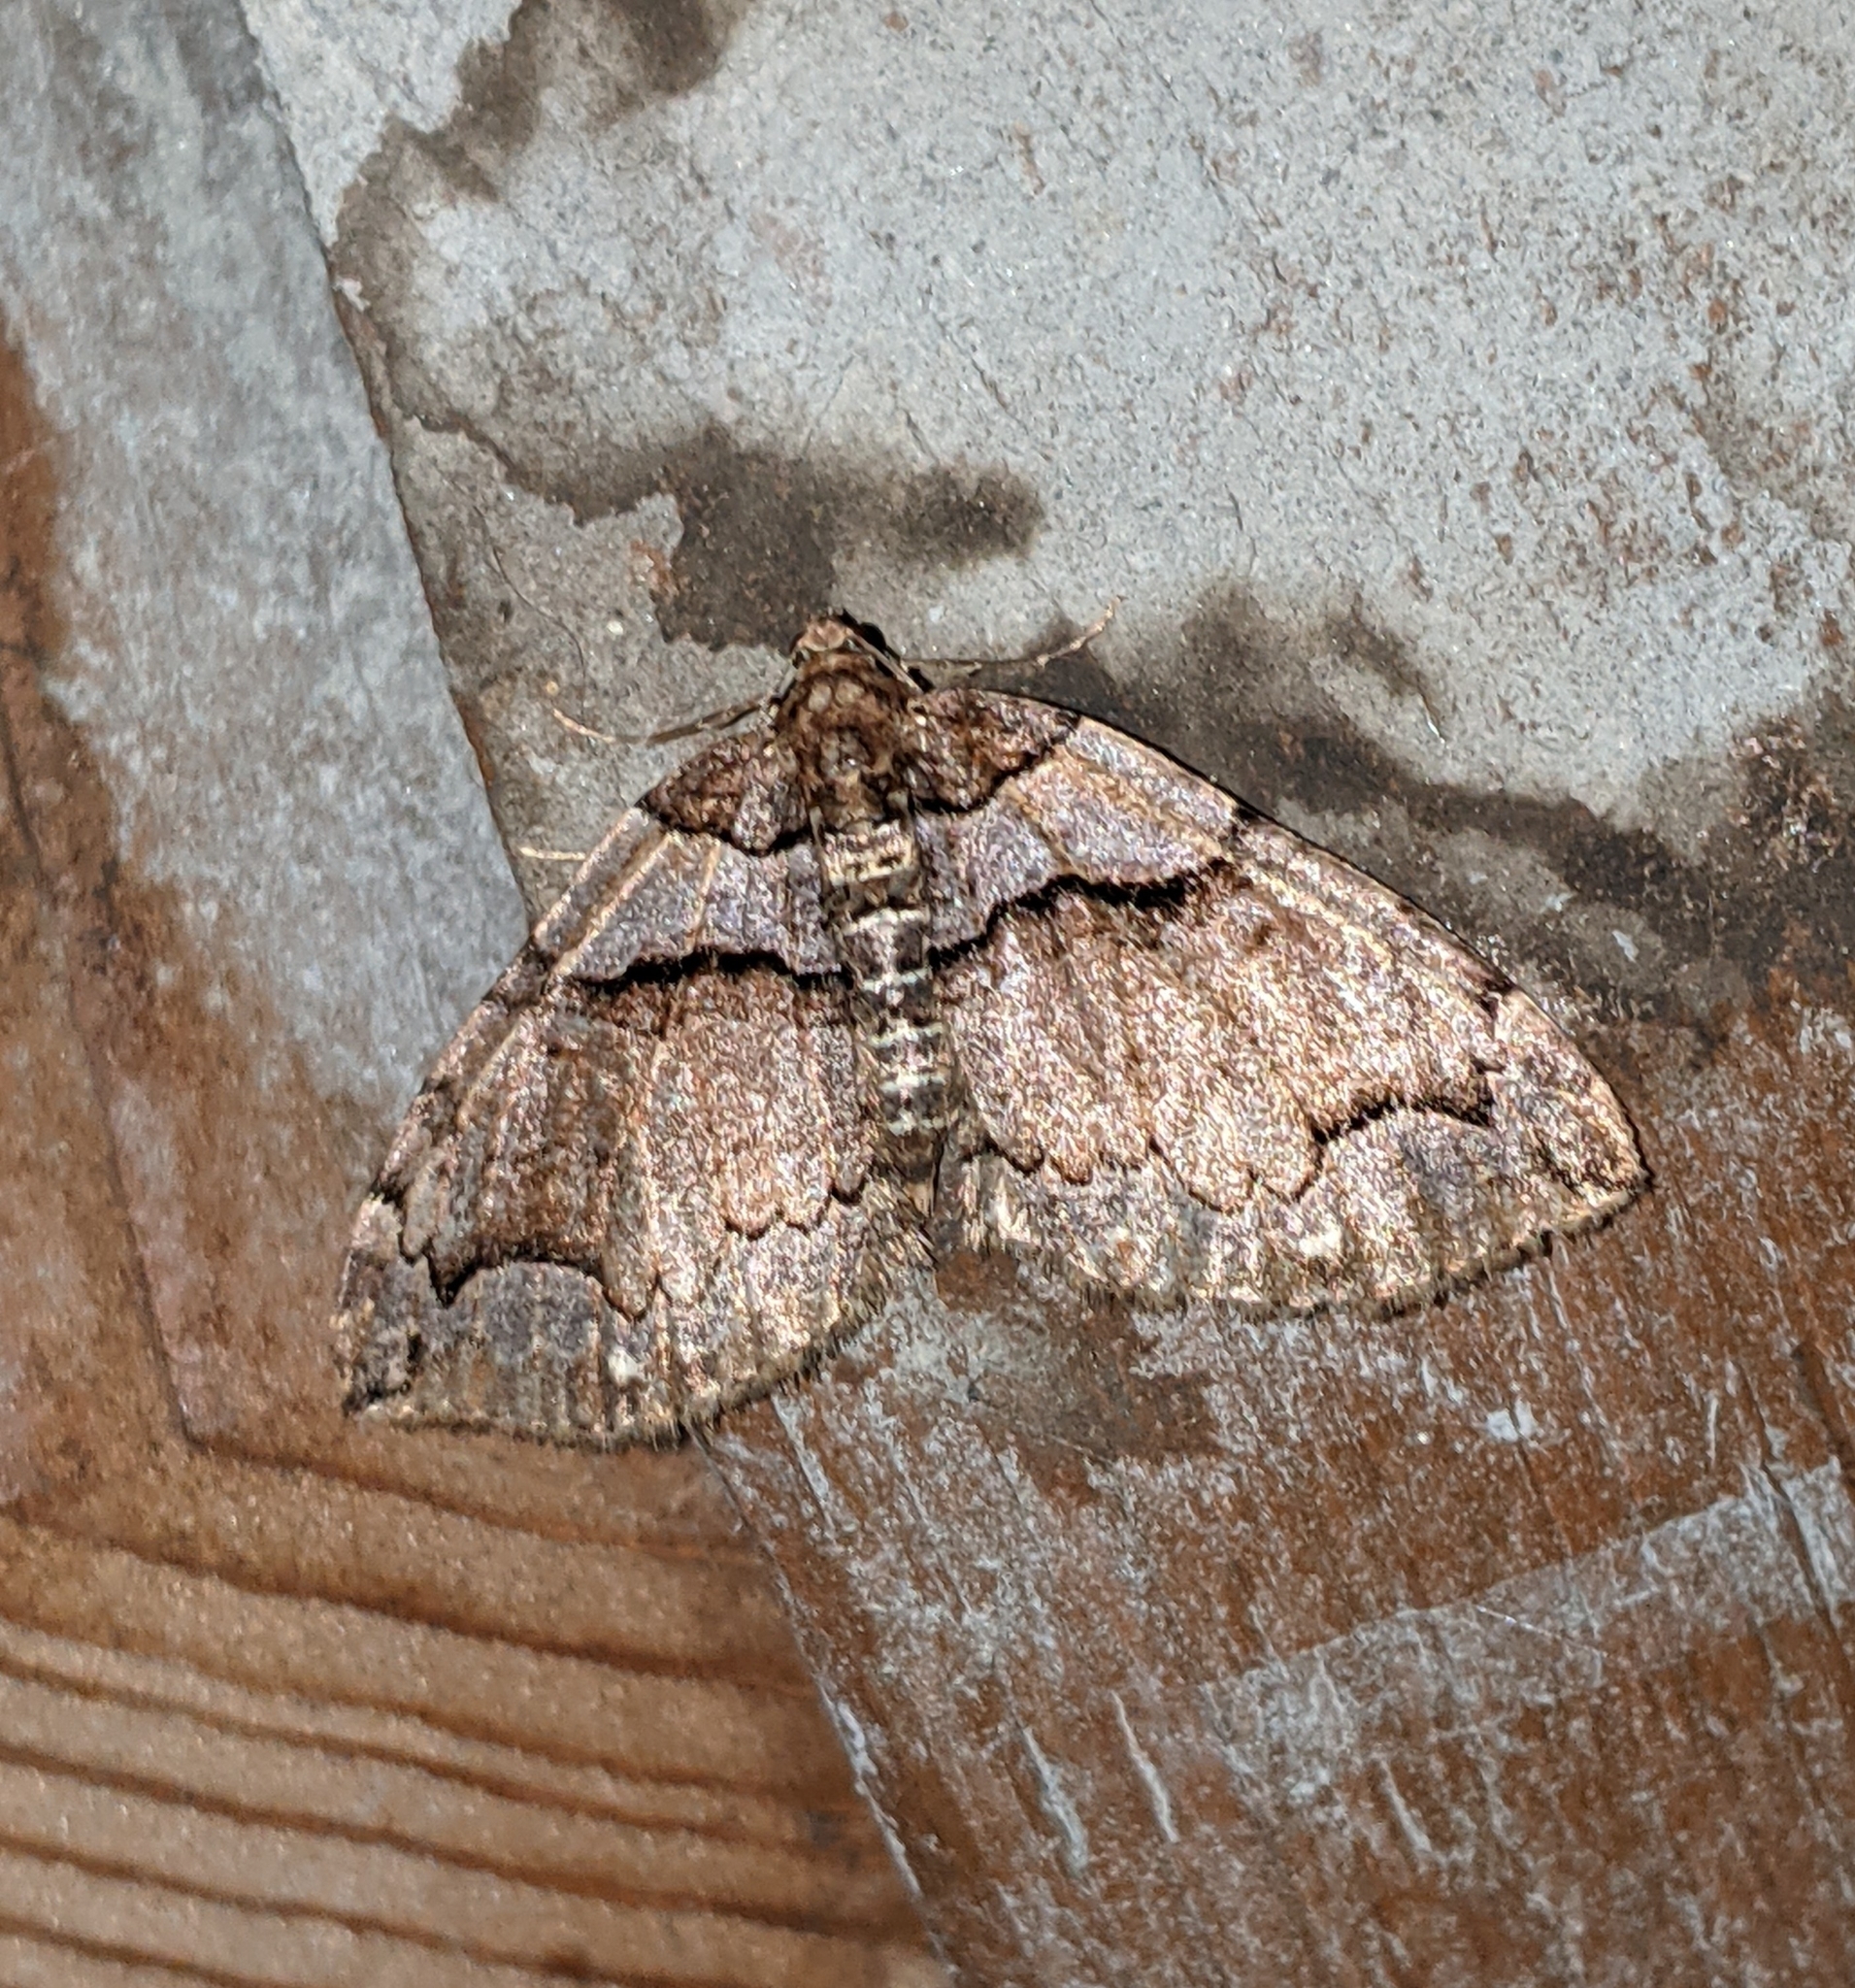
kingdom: Animalia
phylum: Arthropoda
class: Insecta
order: Lepidoptera
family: Geometridae
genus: Anticlea
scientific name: Anticlea vasiliata
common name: Variable carpet
